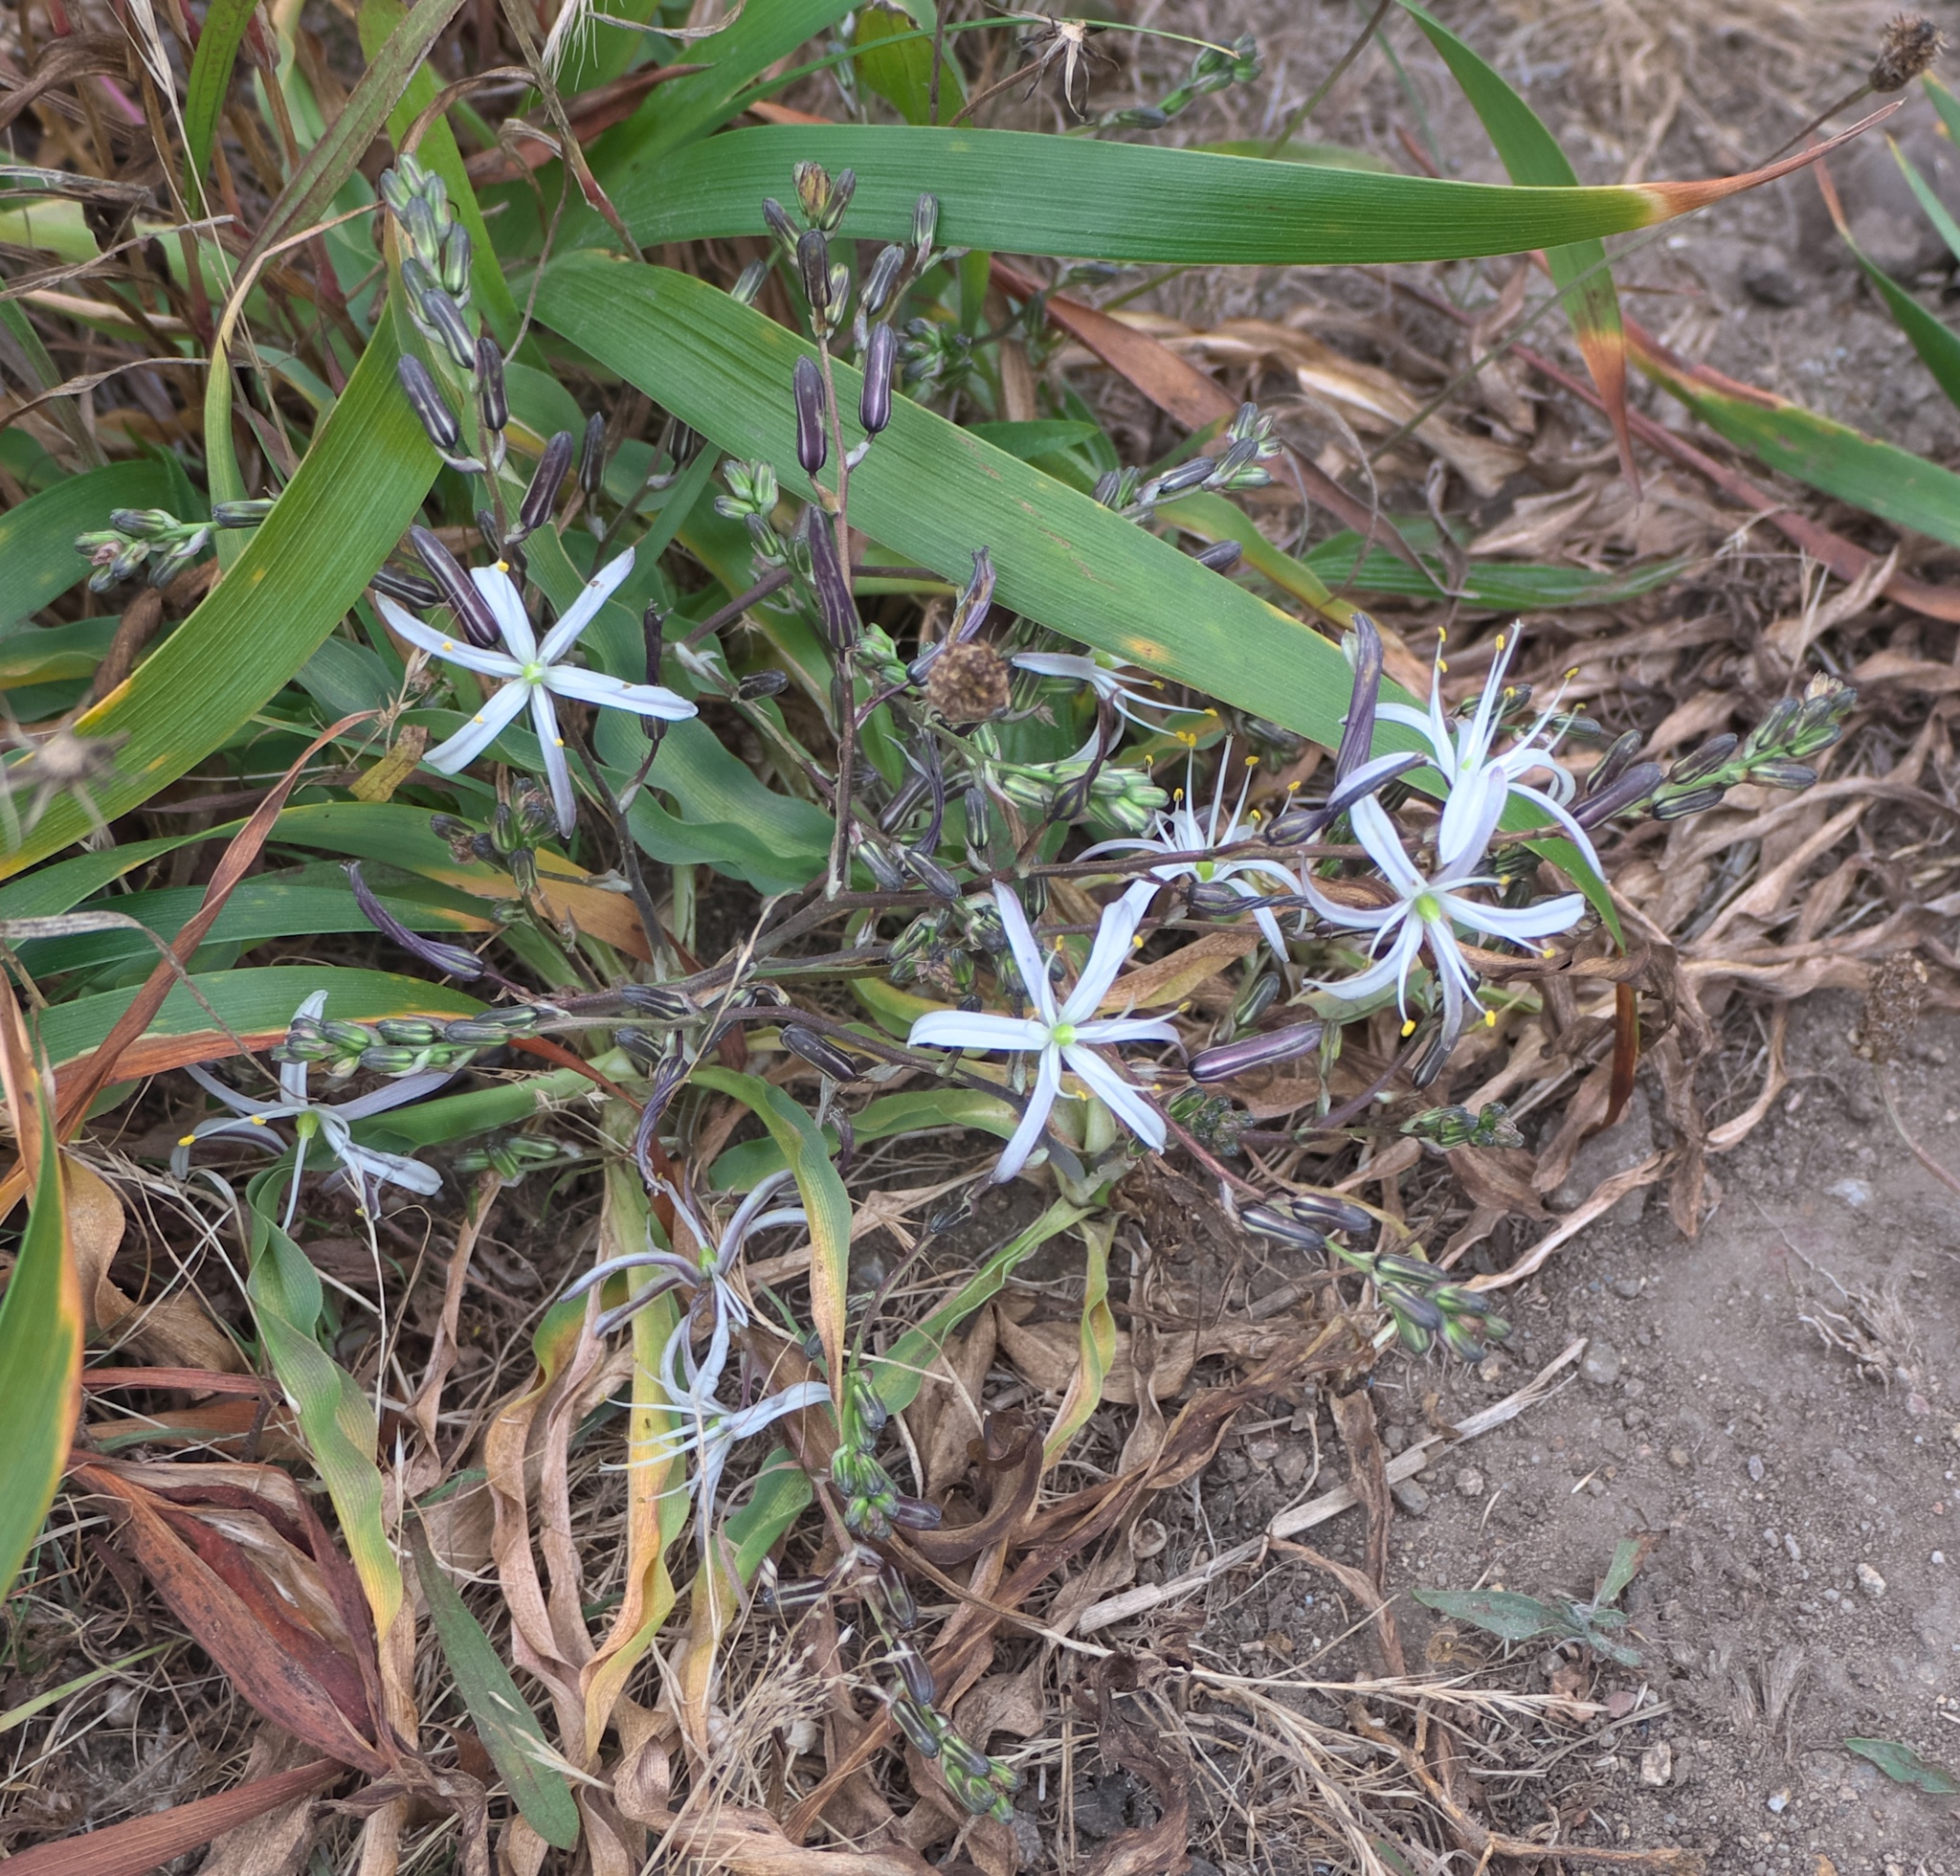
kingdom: Plantae
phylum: Tracheophyta
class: Liliopsida
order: Asparagales
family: Asparagaceae
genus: Chlorogalum
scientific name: Chlorogalum pomeridianum
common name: Amole
